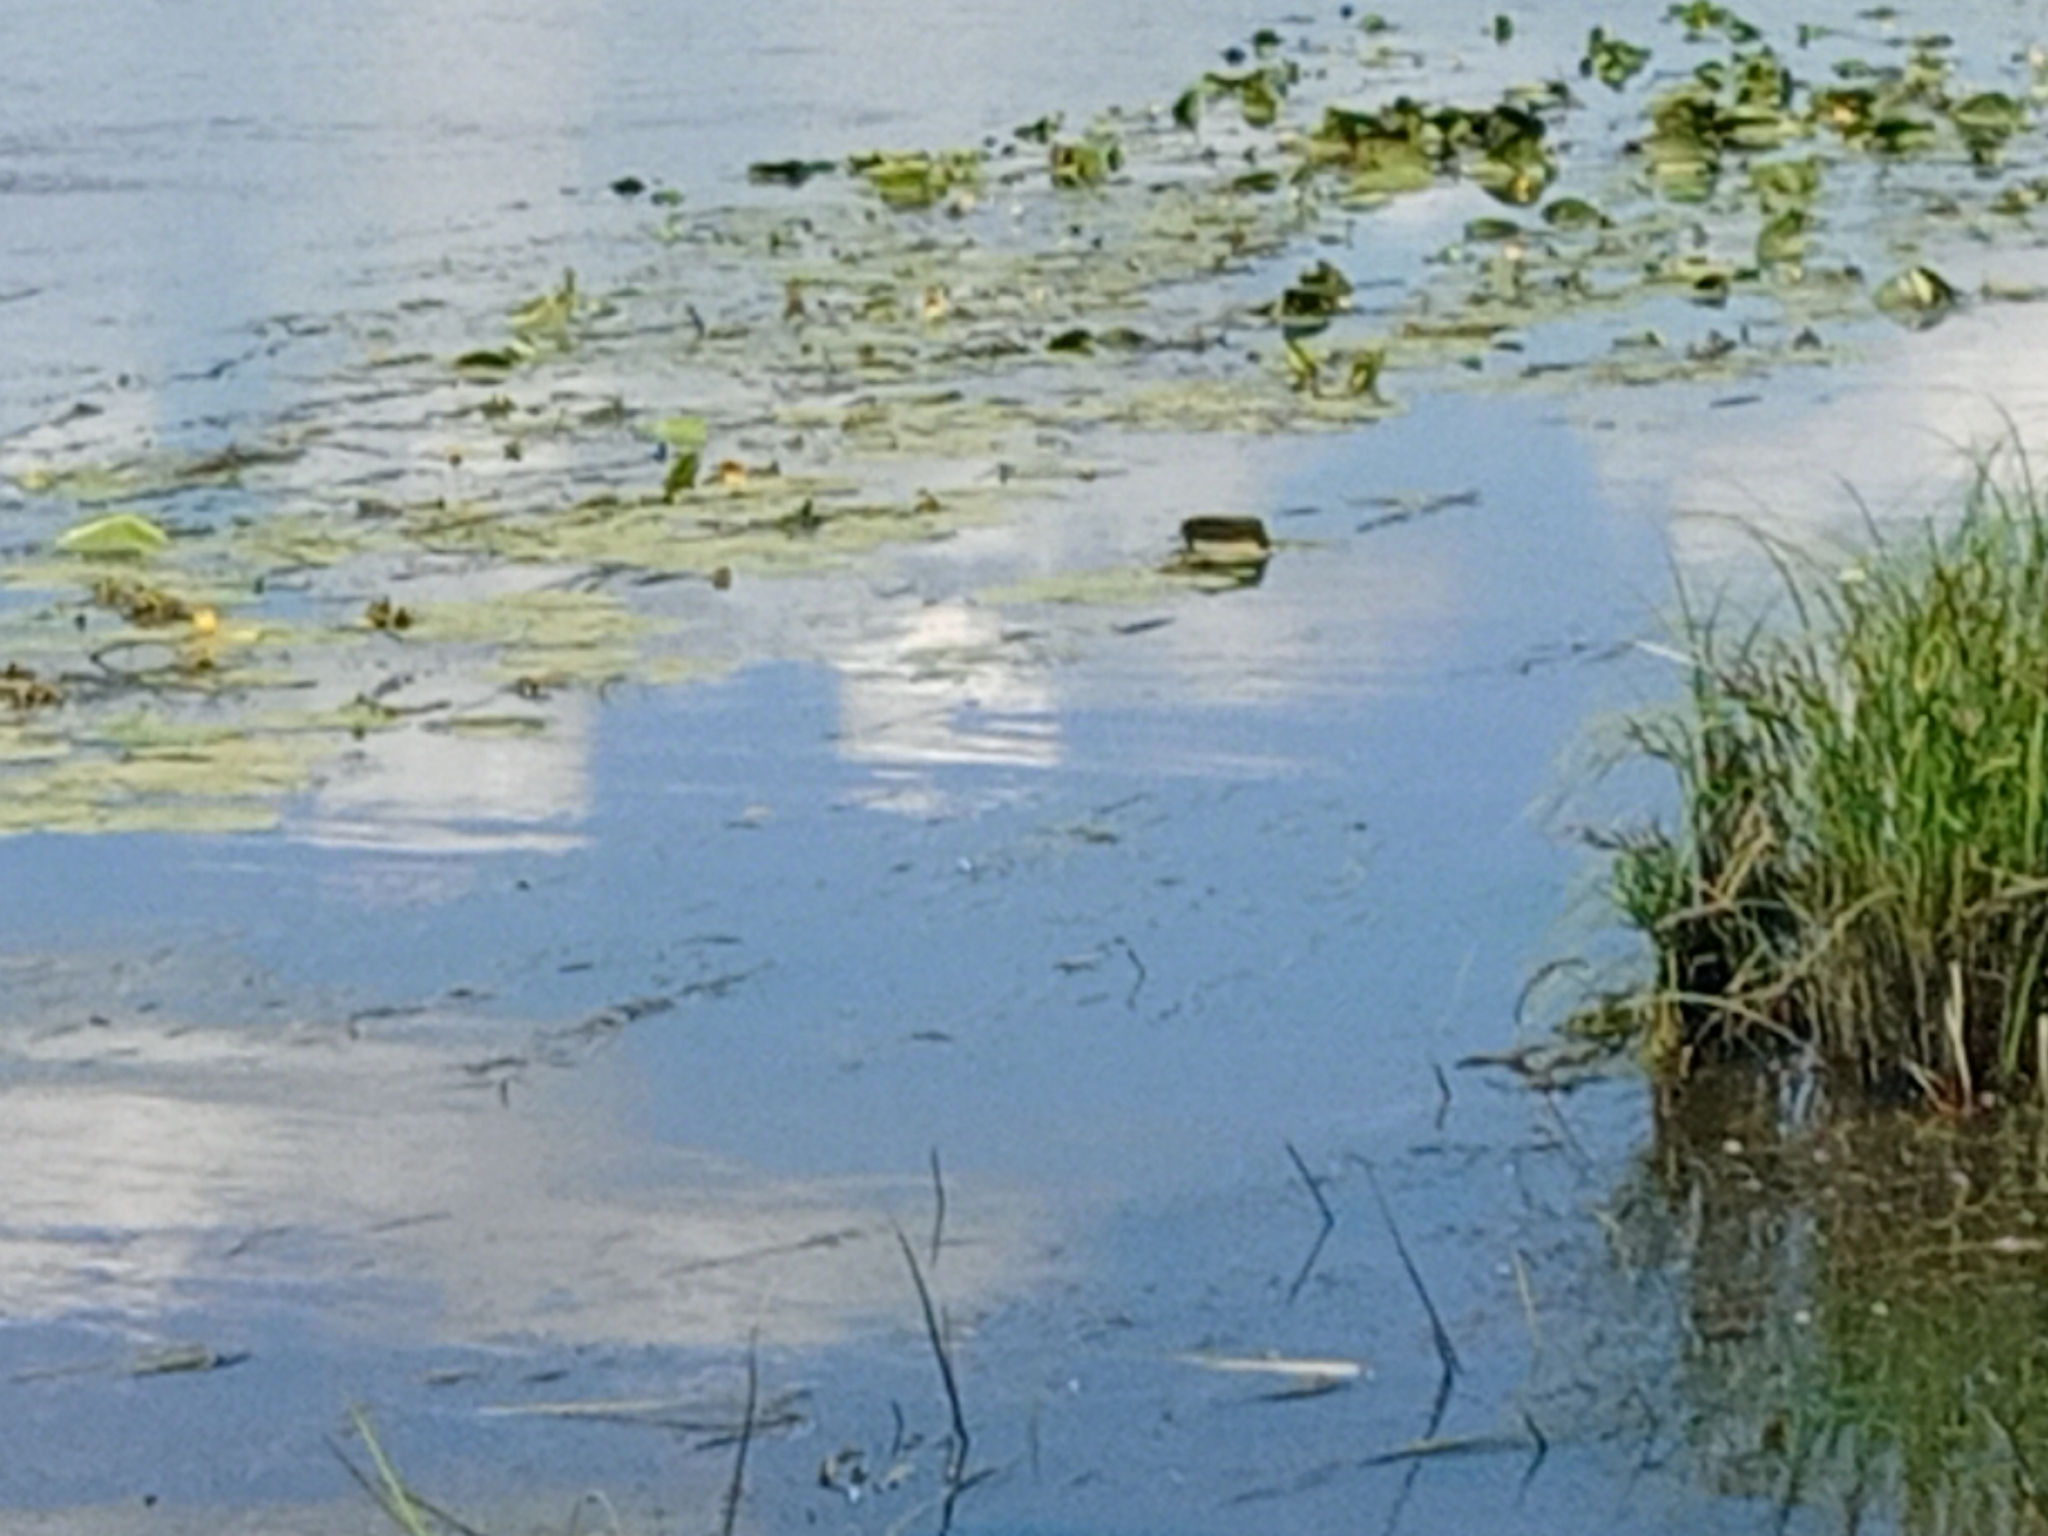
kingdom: Plantae
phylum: Tracheophyta
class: Magnoliopsida
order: Nymphaeales
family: Nymphaeaceae
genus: Nuphar
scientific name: Nuphar lutea
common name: Yellow water-lily
